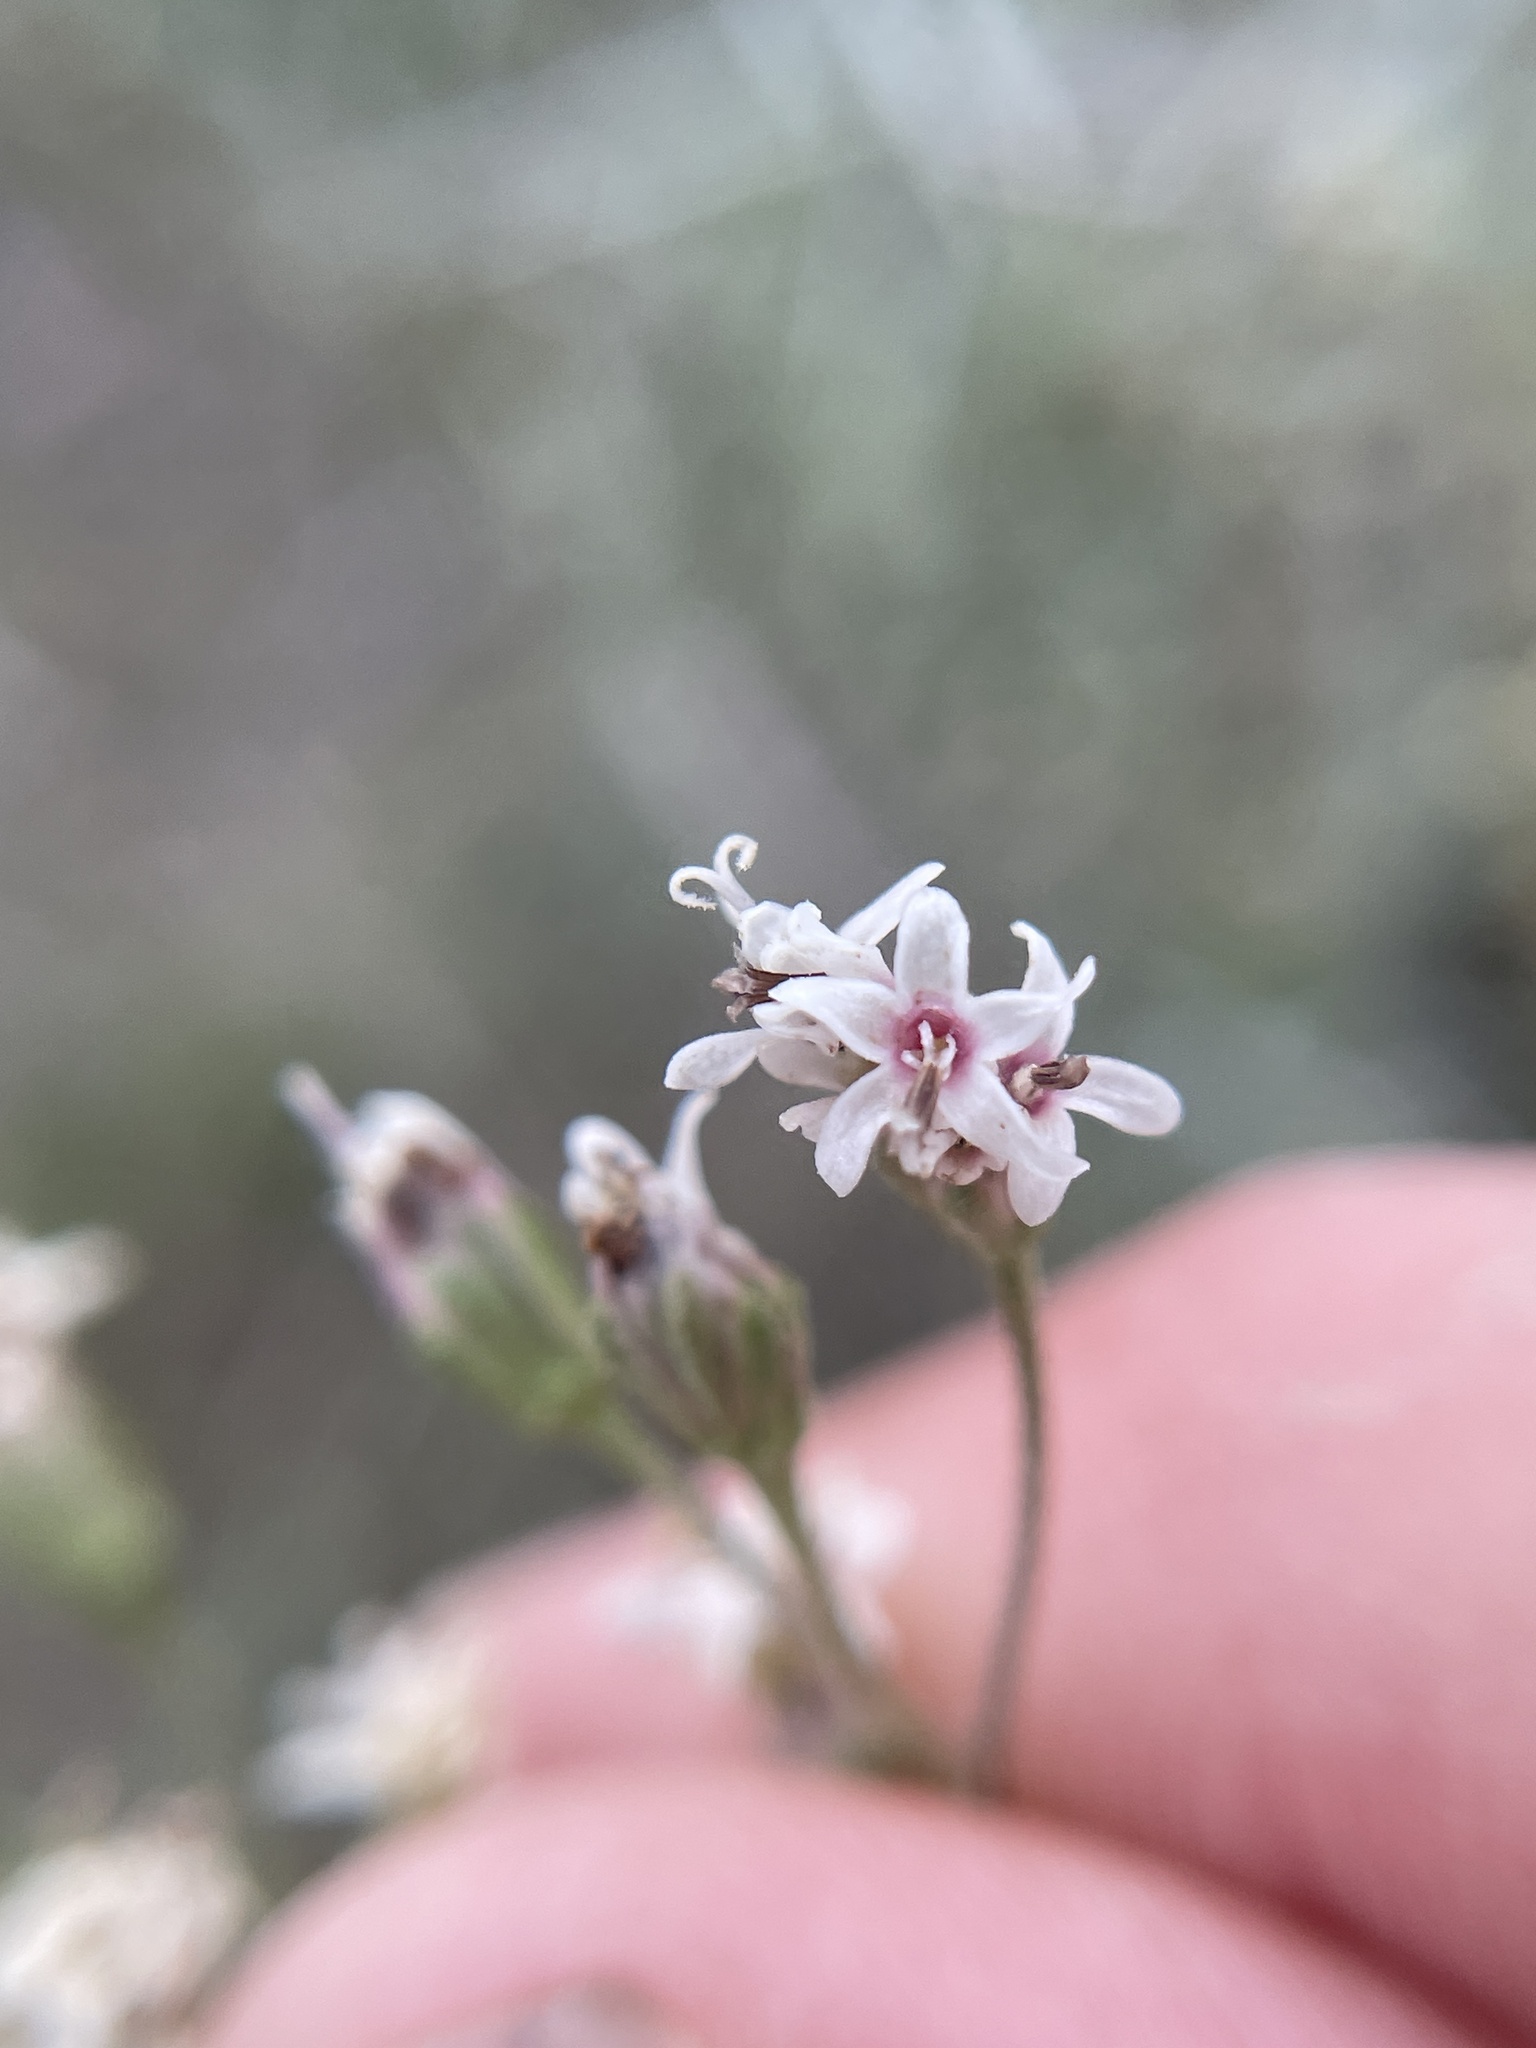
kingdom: Plantae
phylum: Tracheophyta
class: Magnoliopsida
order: Asterales
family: Asteraceae
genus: Florestina
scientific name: Florestina tripteris
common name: Sticky florestina
